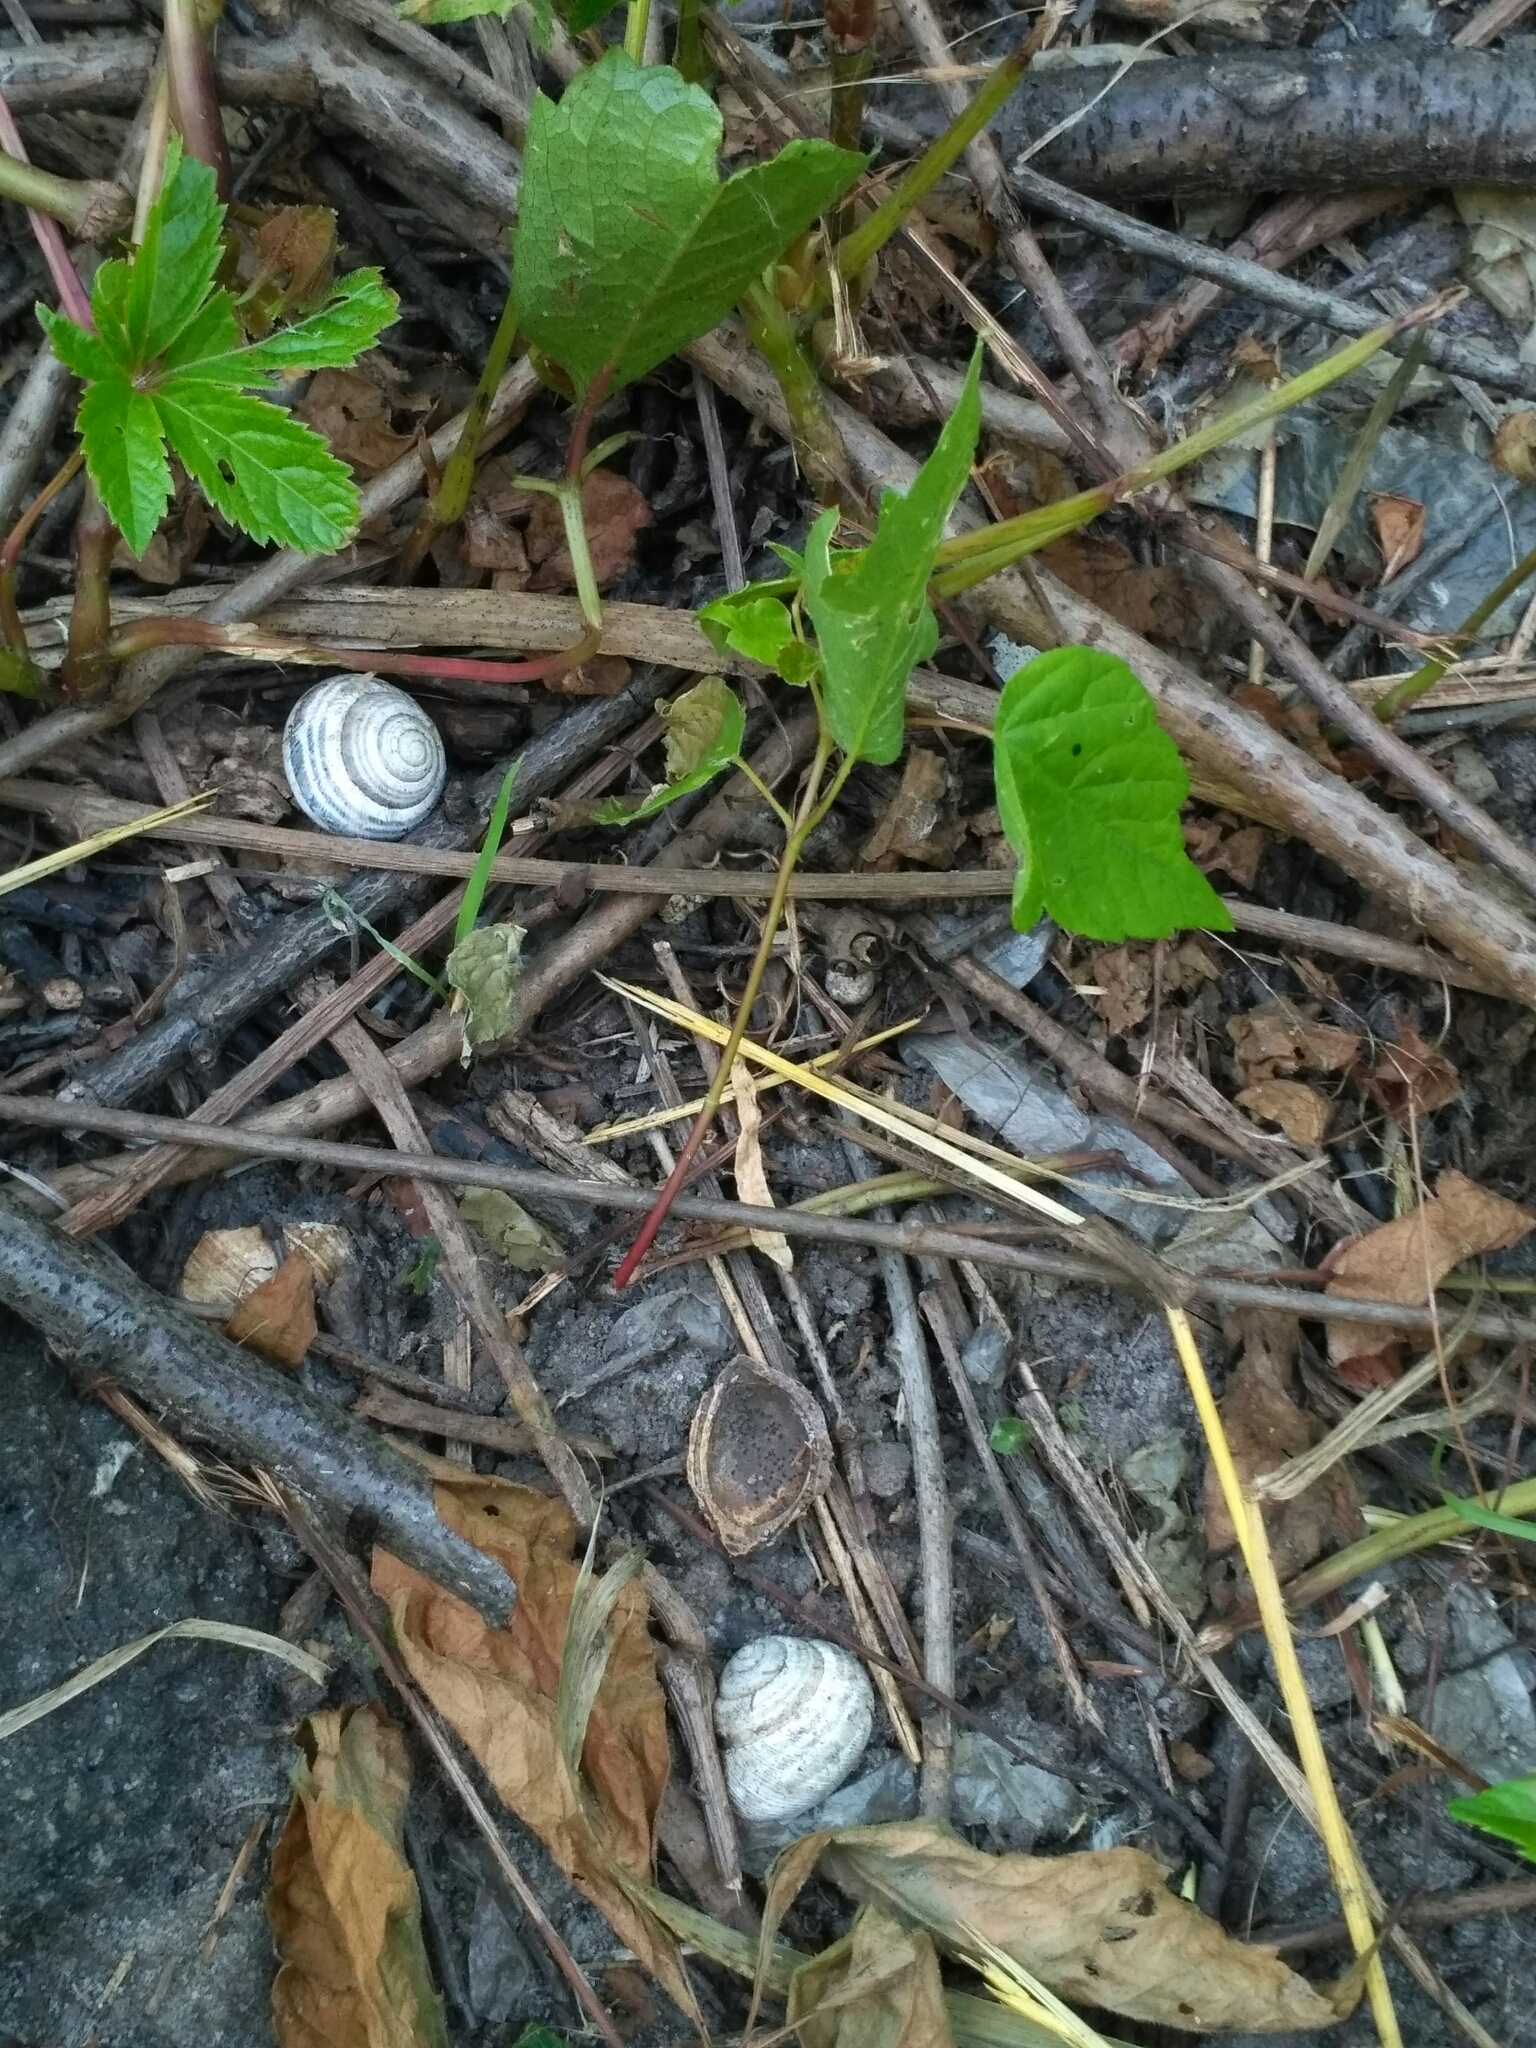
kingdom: Animalia
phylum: Mollusca
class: Gastropoda
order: Stylommatophora
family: Helicidae
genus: Caucasotachea
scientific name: Caucasotachea vindobonensis
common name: European helicid land snail
